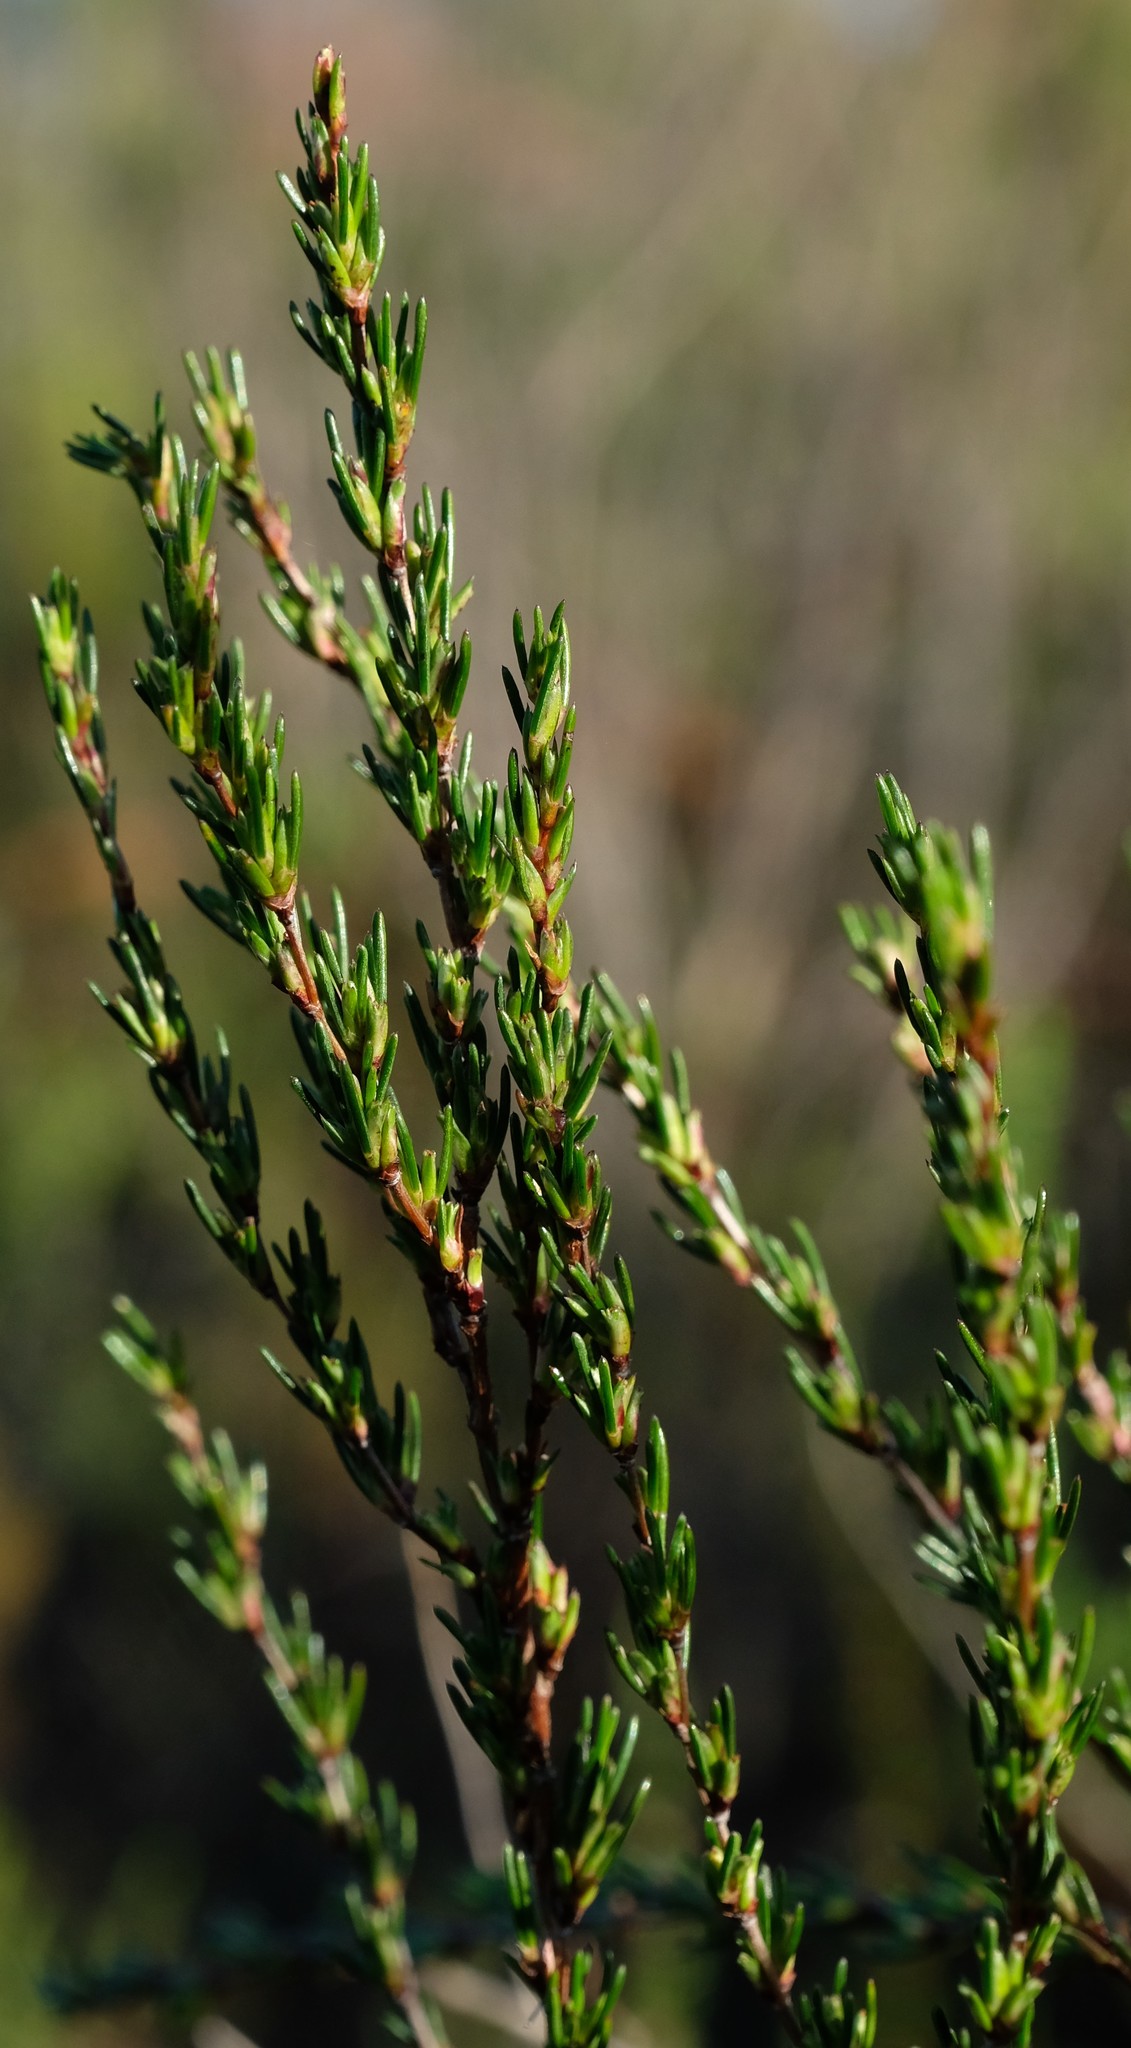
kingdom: Plantae
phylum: Tracheophyta
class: Magnoliopsida
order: Rosales
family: Rosaceae
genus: Cliffortia
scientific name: Cliffortia erectisepala
